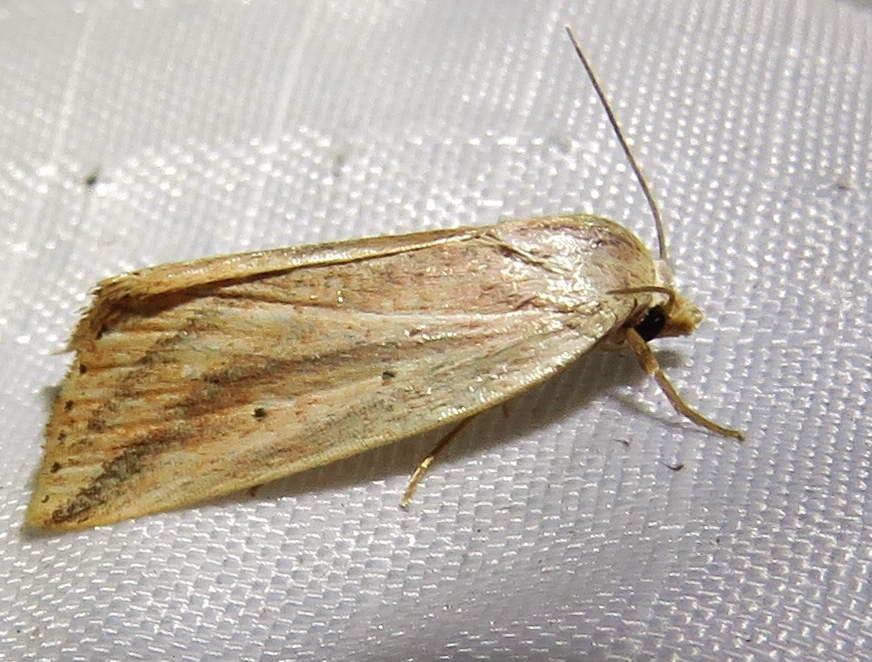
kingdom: Animalia
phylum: Arthropoda
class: Insecta
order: Lepidoptera
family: Noctuidae
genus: Amolita
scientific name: Amolita fessa
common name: Feeble grass moth
